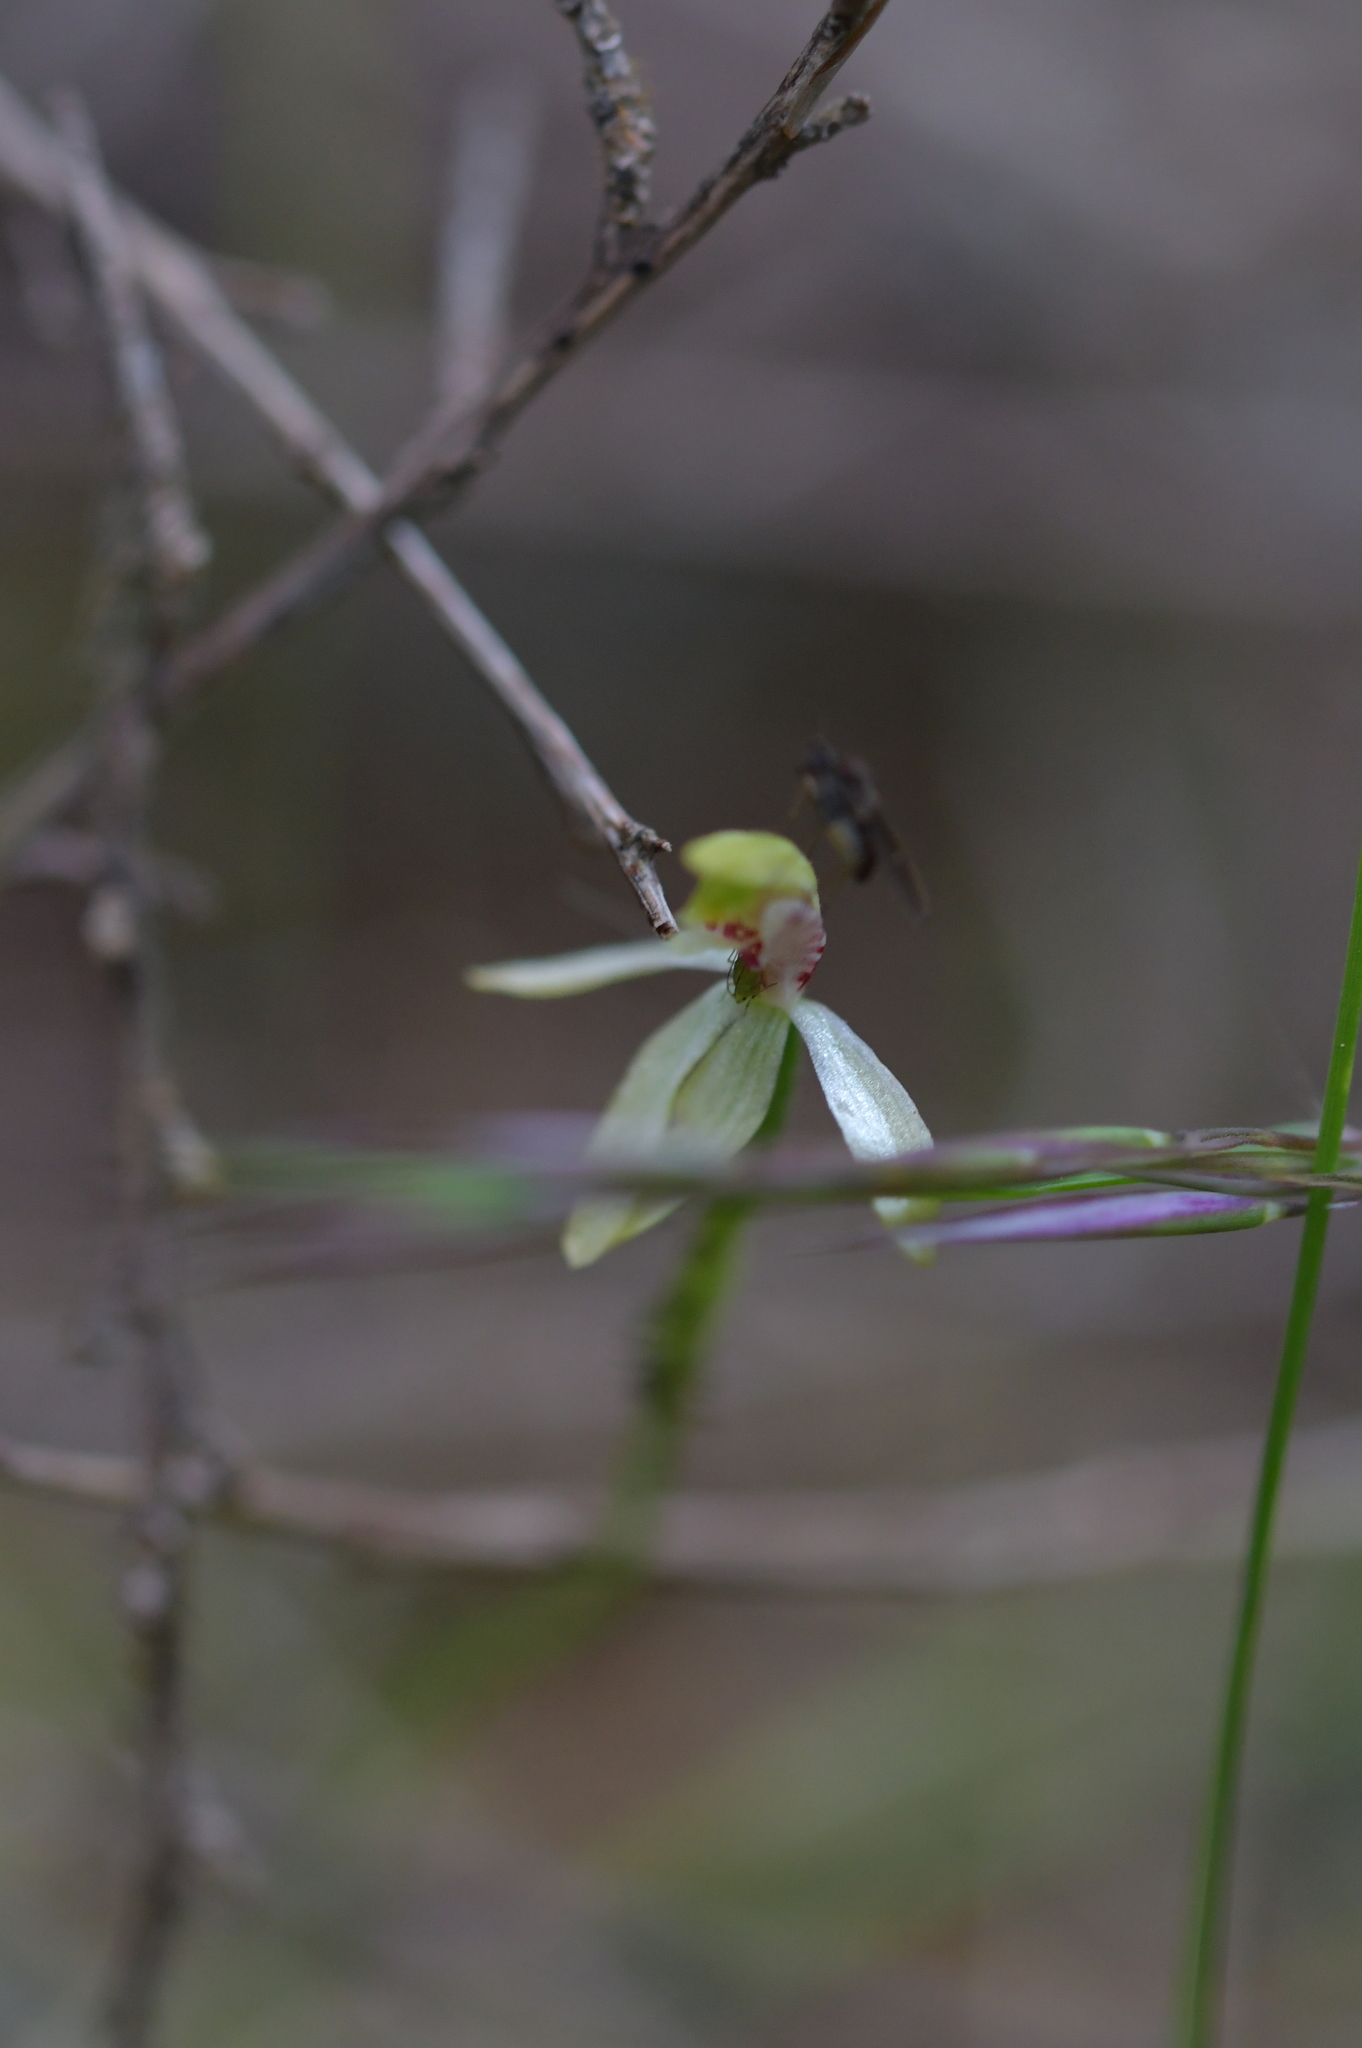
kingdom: Plantae
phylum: Tracheophyta
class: Liliopsida
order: Asparagales
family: Orchidaceae
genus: Caladenia
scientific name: Caladenia chlorostyla
